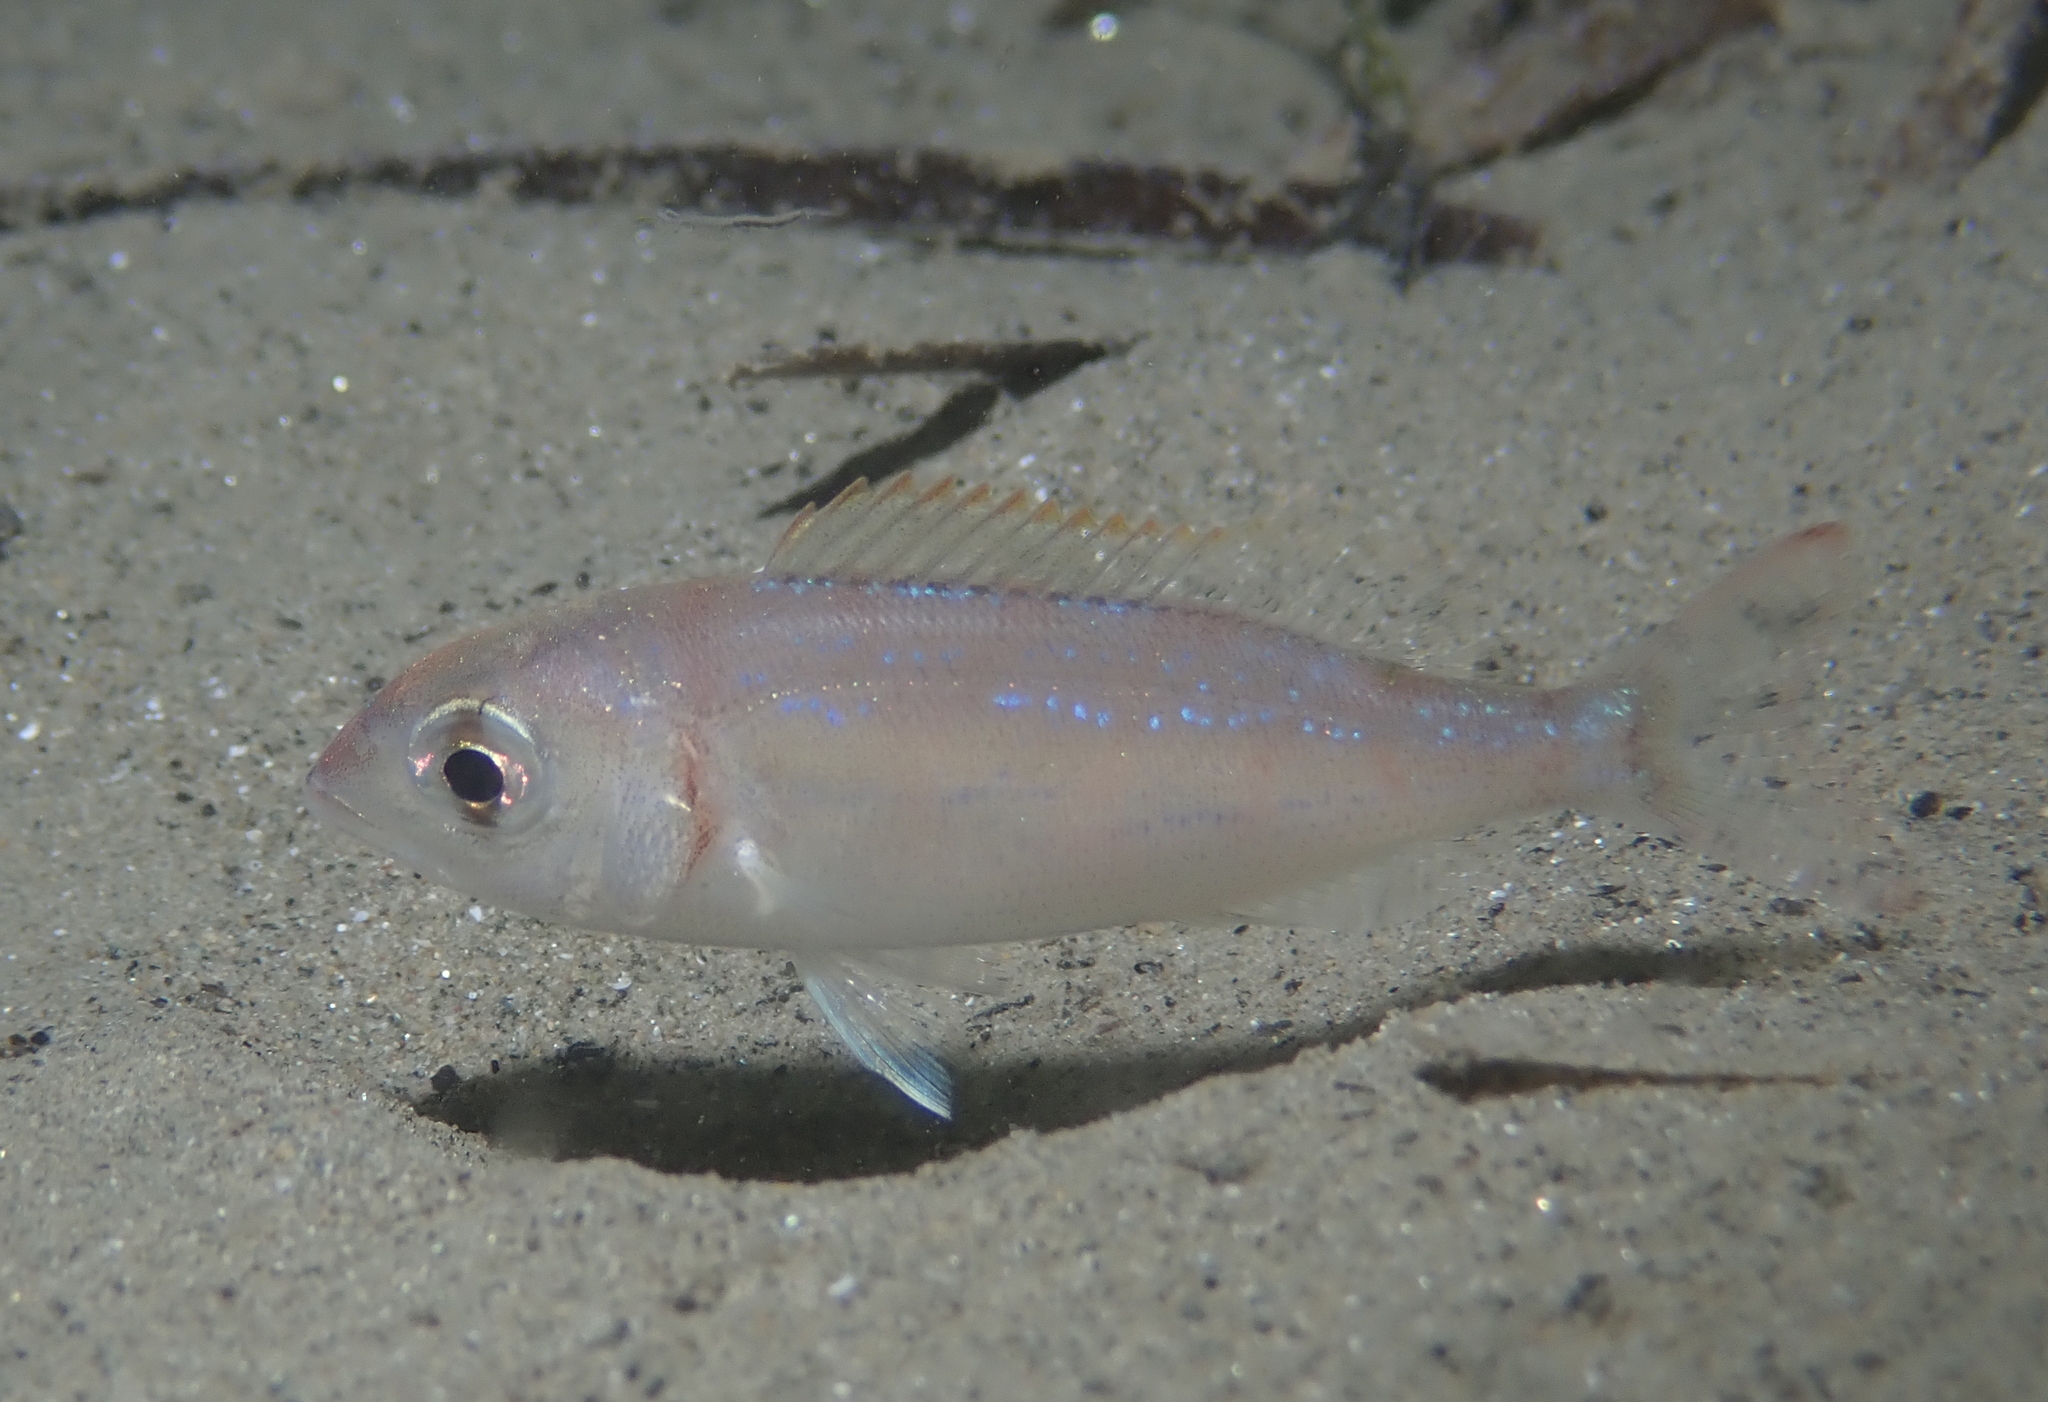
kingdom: Animalia
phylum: Chordata
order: Perciformes
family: Sparidae
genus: Pagellus
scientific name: Pagellus erythrinus
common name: Pandora
